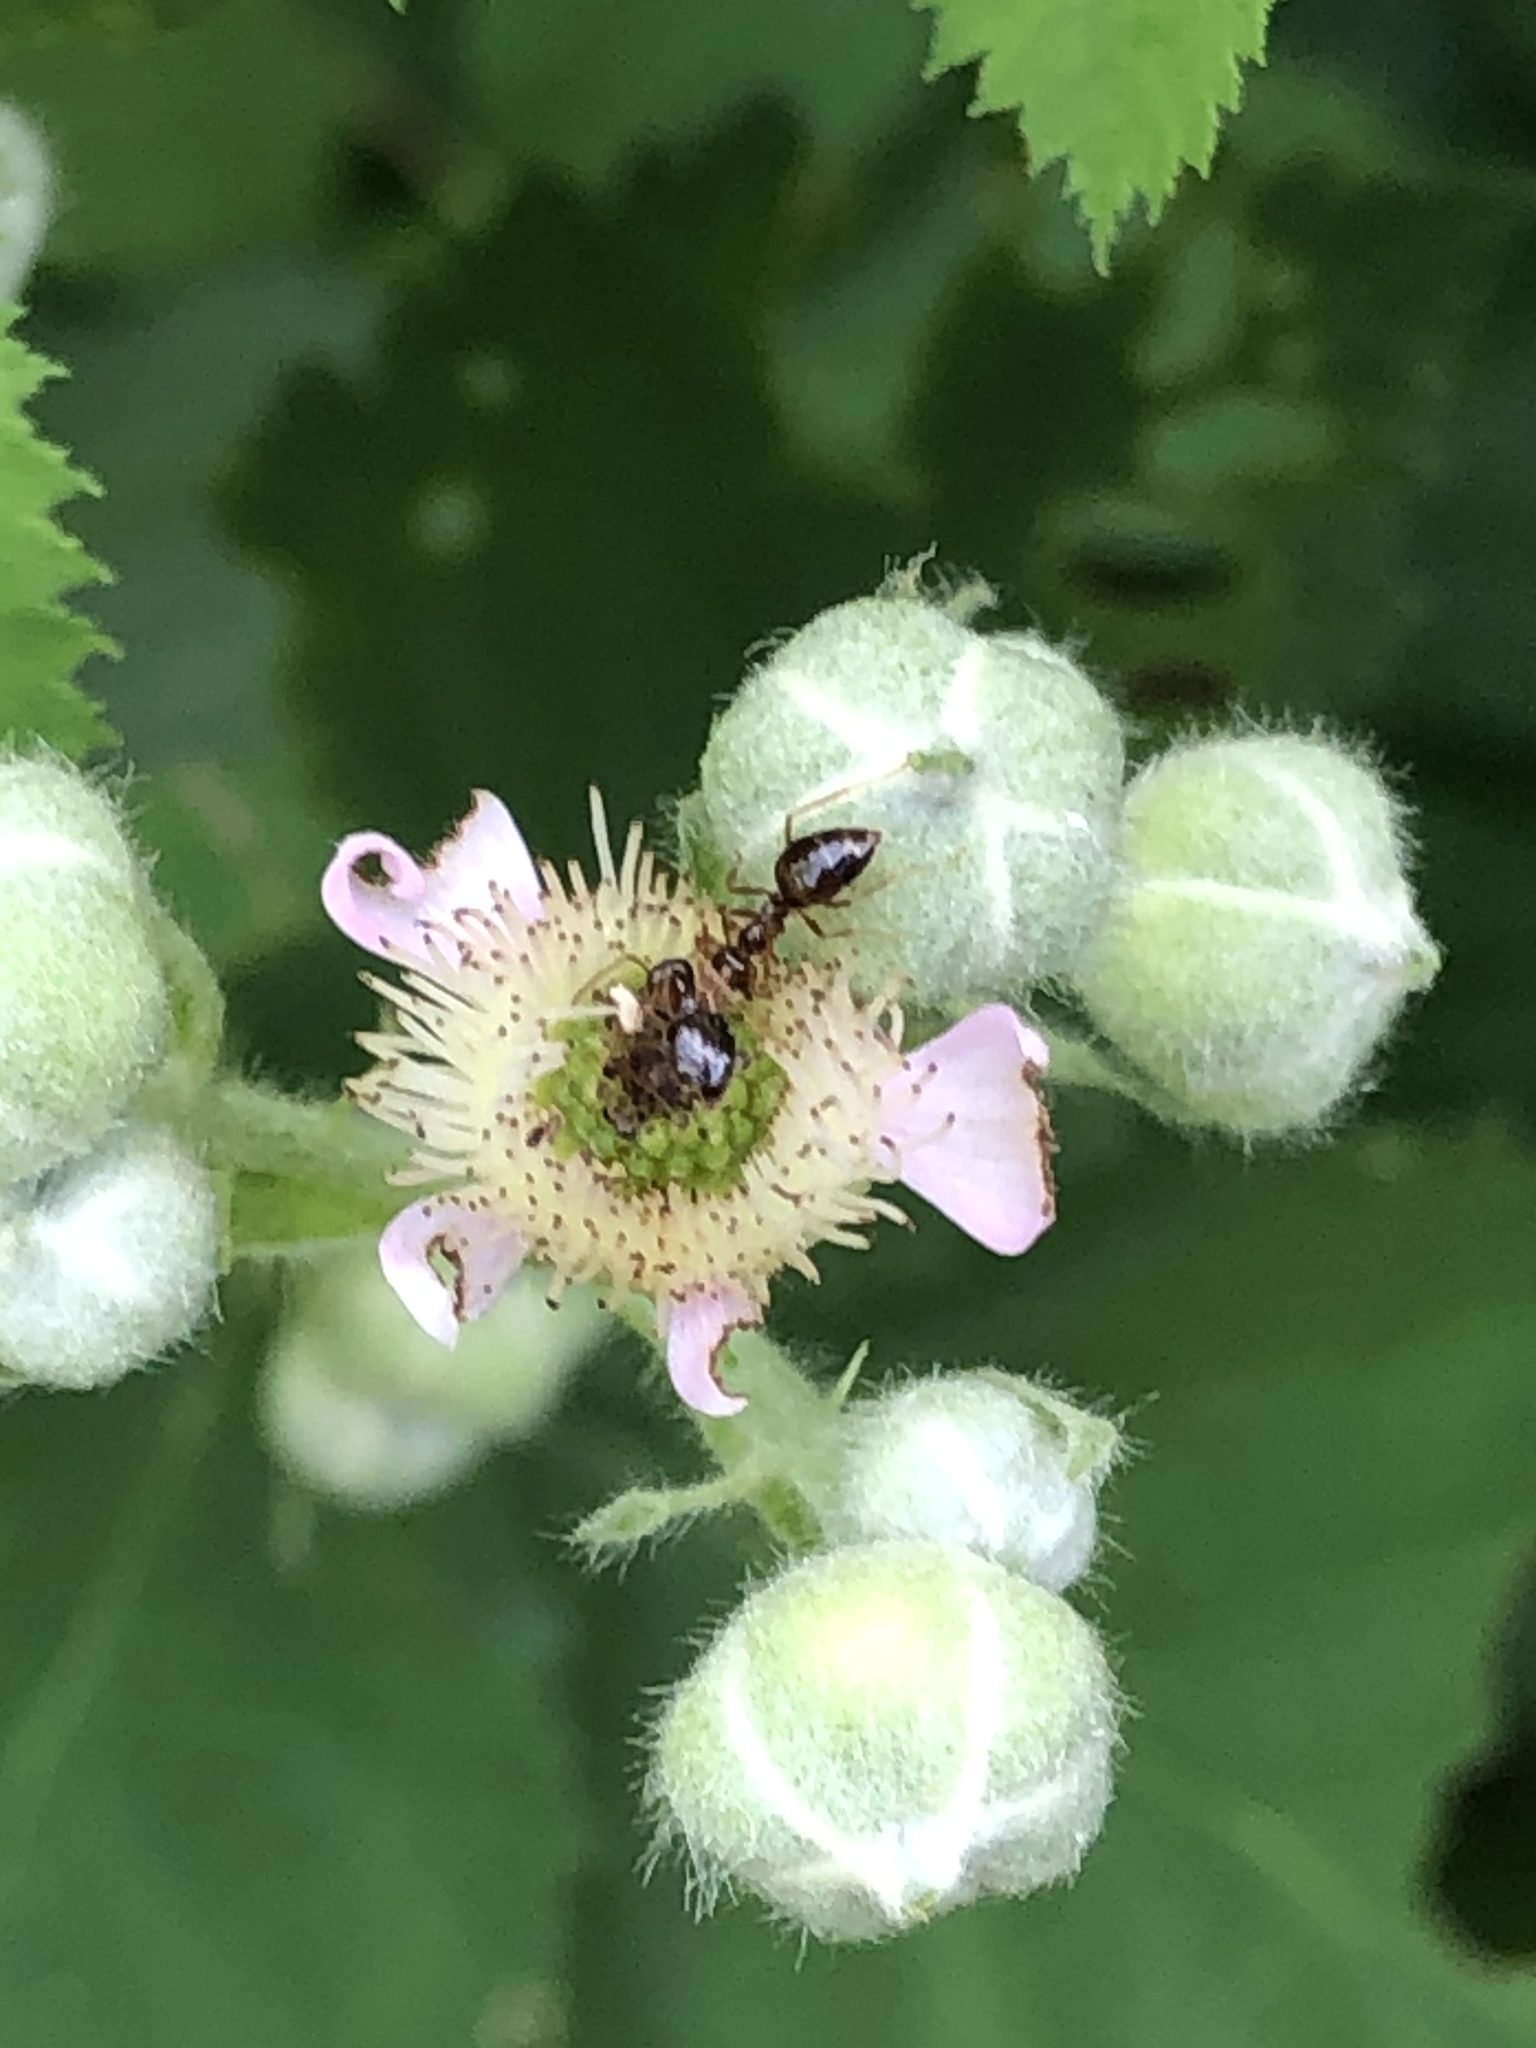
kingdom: Animalia
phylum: Arthropoda
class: Insecta
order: Hymenoptera
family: Formicidae
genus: Prenolepis
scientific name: Prenolepis imparis
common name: Small honey ant
